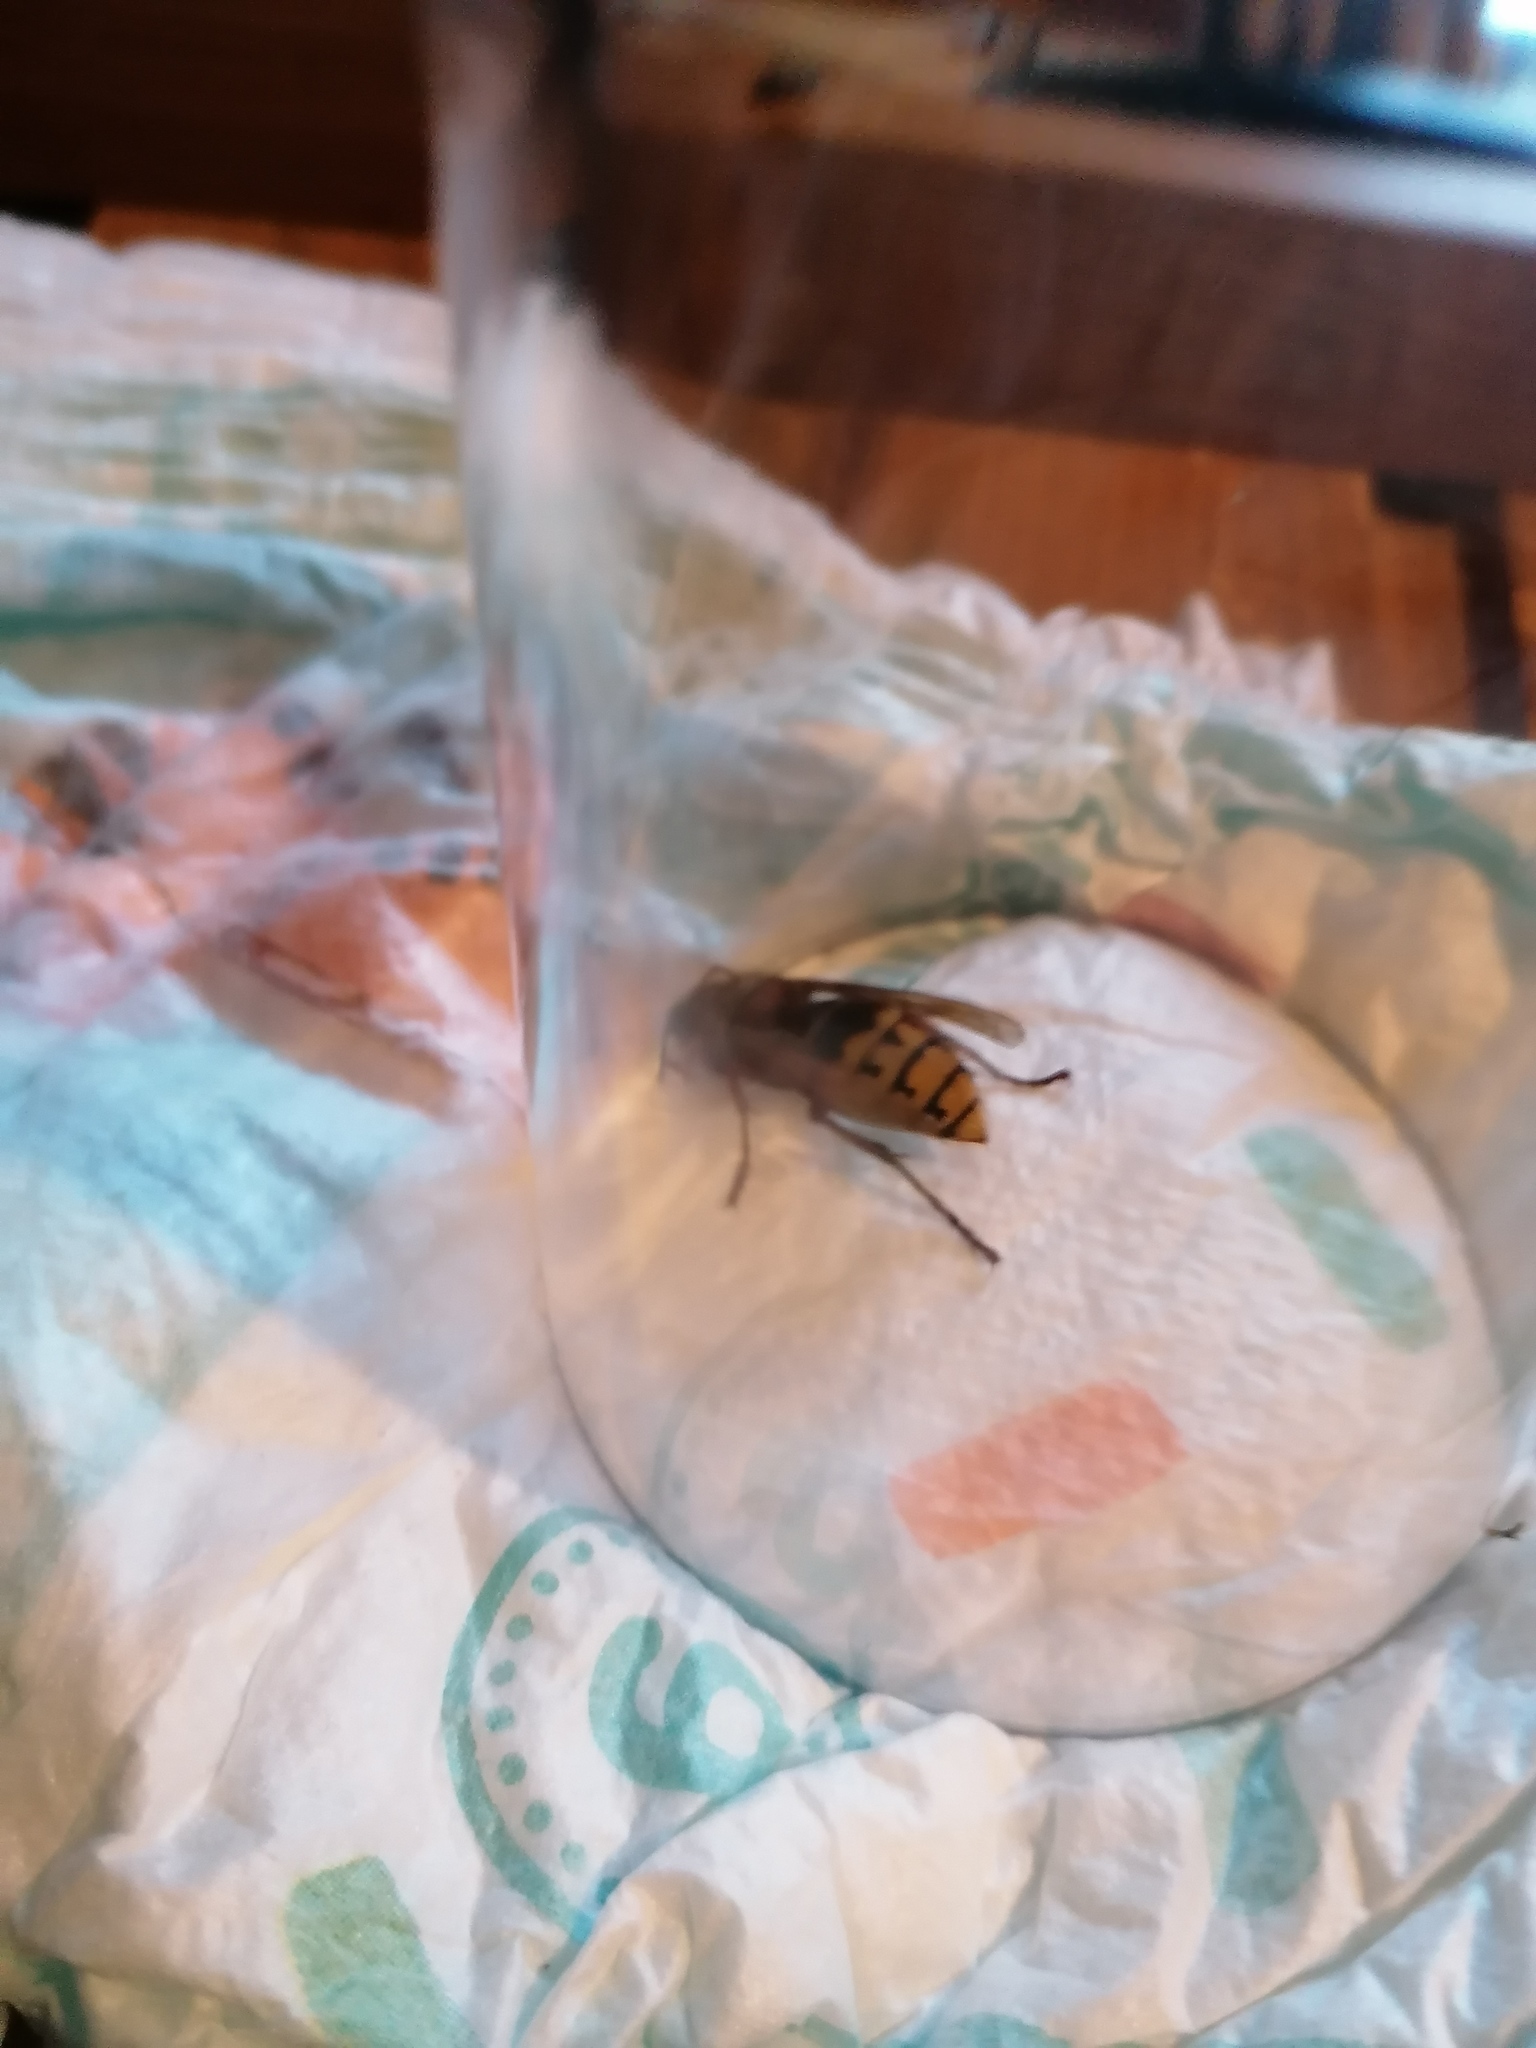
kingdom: Animalia
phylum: Arthropoda
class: Insecta
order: Hymenoptera
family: Vespidae
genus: Vespa
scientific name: Vespa crabro
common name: Hornet
